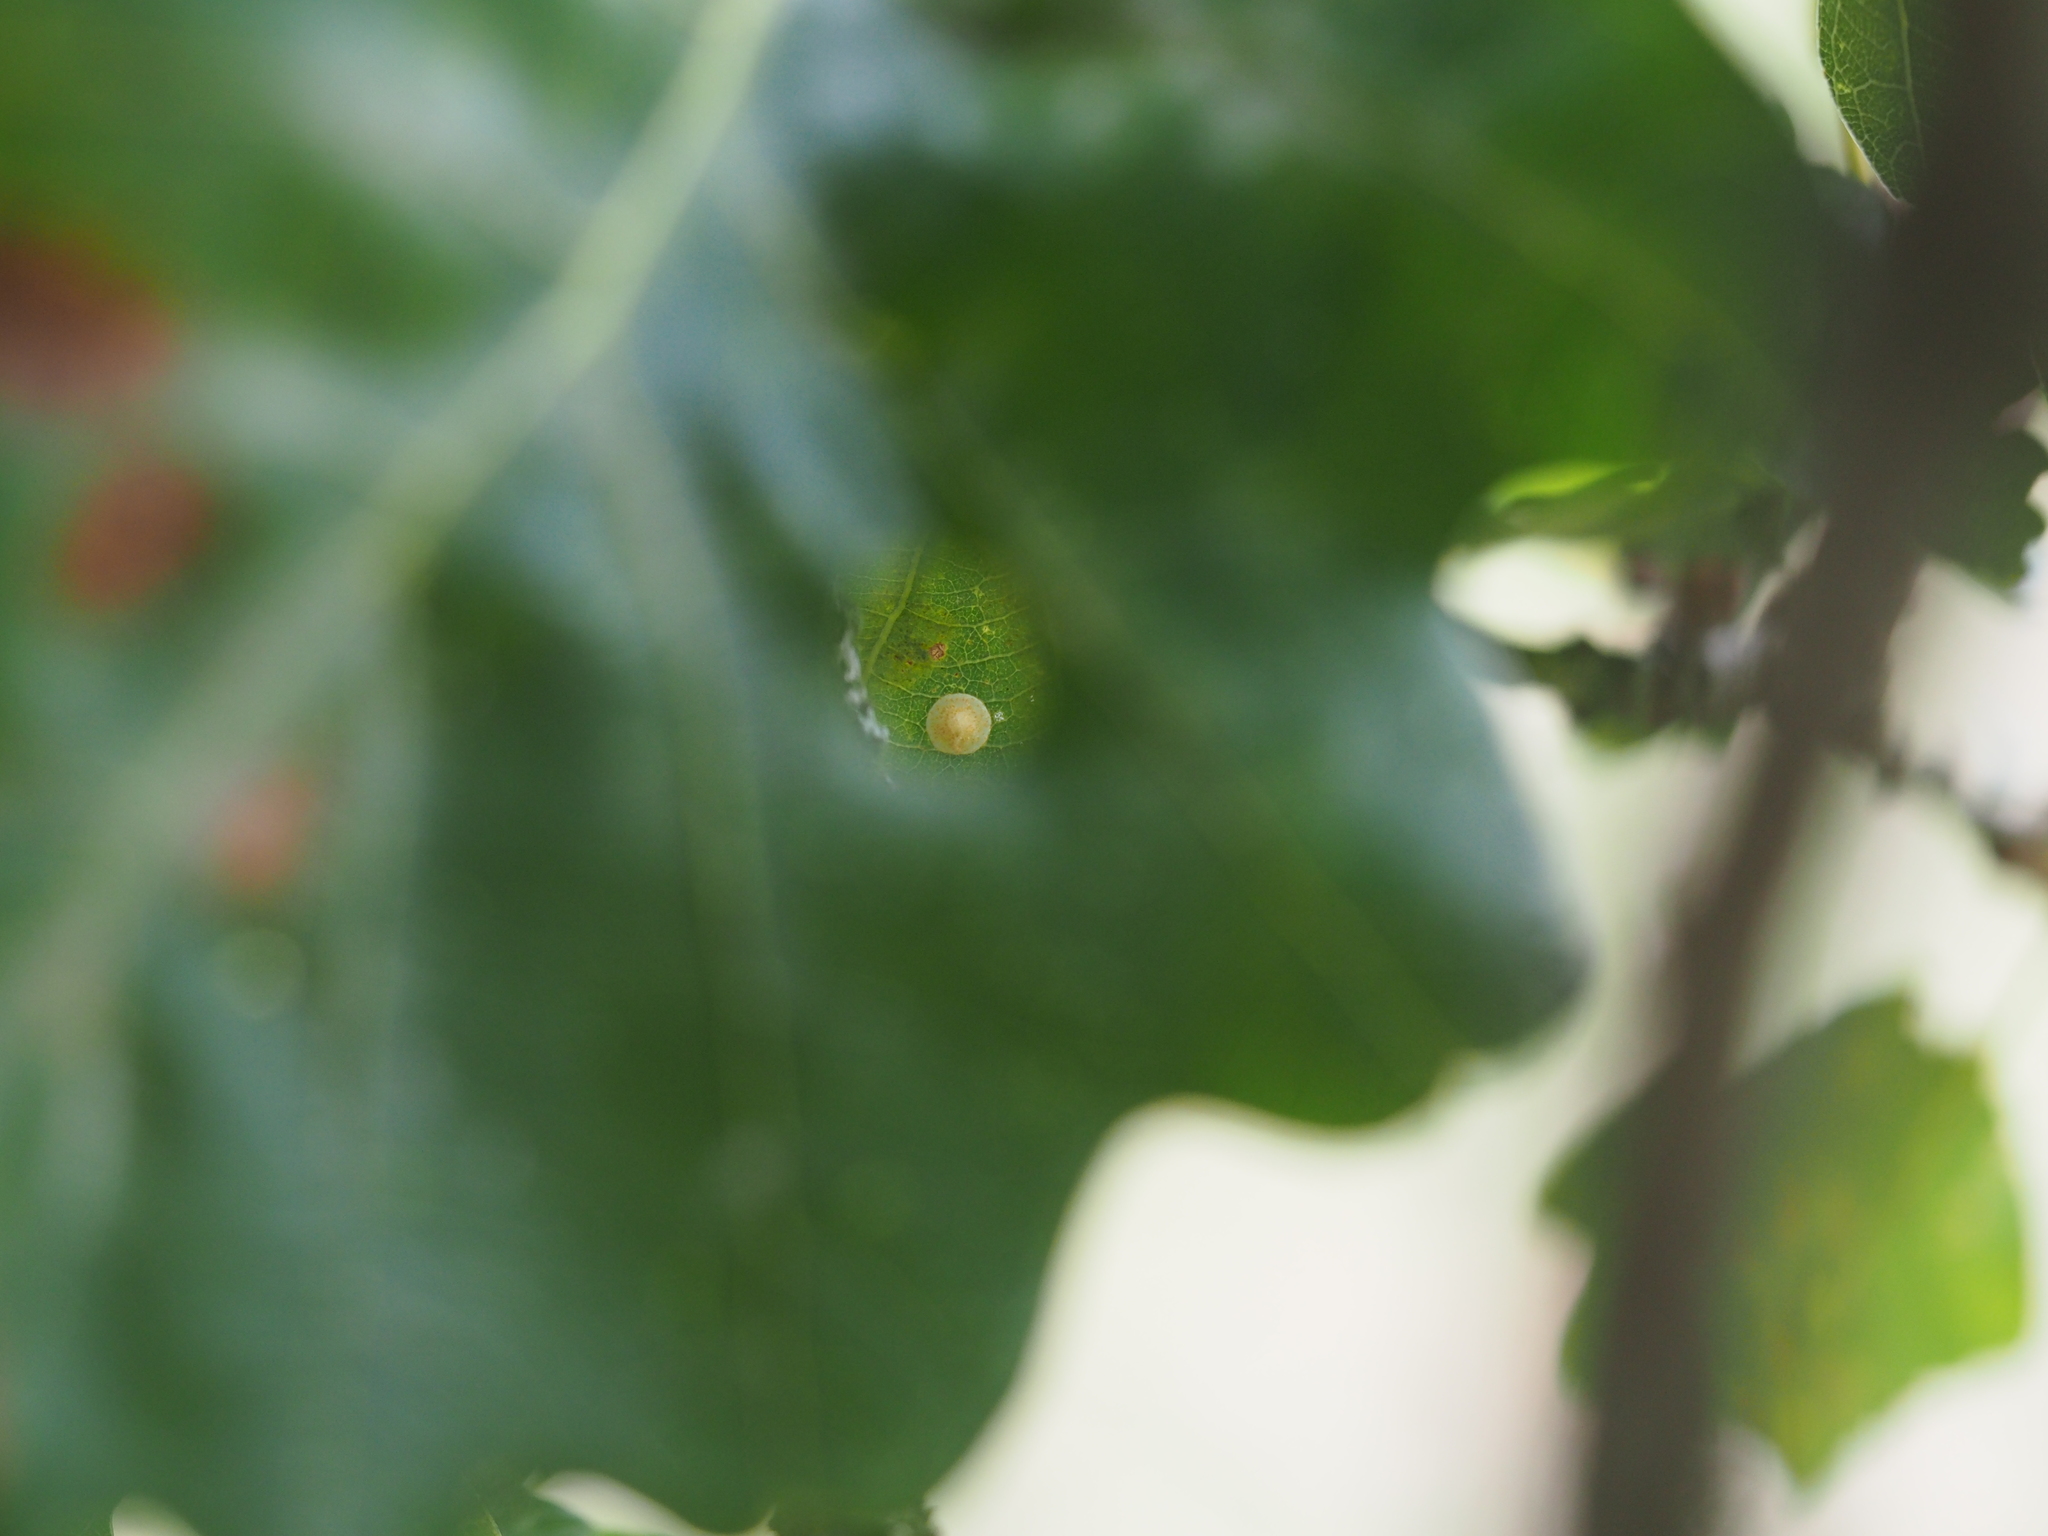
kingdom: Animalia
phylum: Arthropoda
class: Insecta
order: Hymenoptera
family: Cynipidae
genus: Neuroterus
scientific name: Neuroterus quercusbaccarum
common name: Common spangle gall
